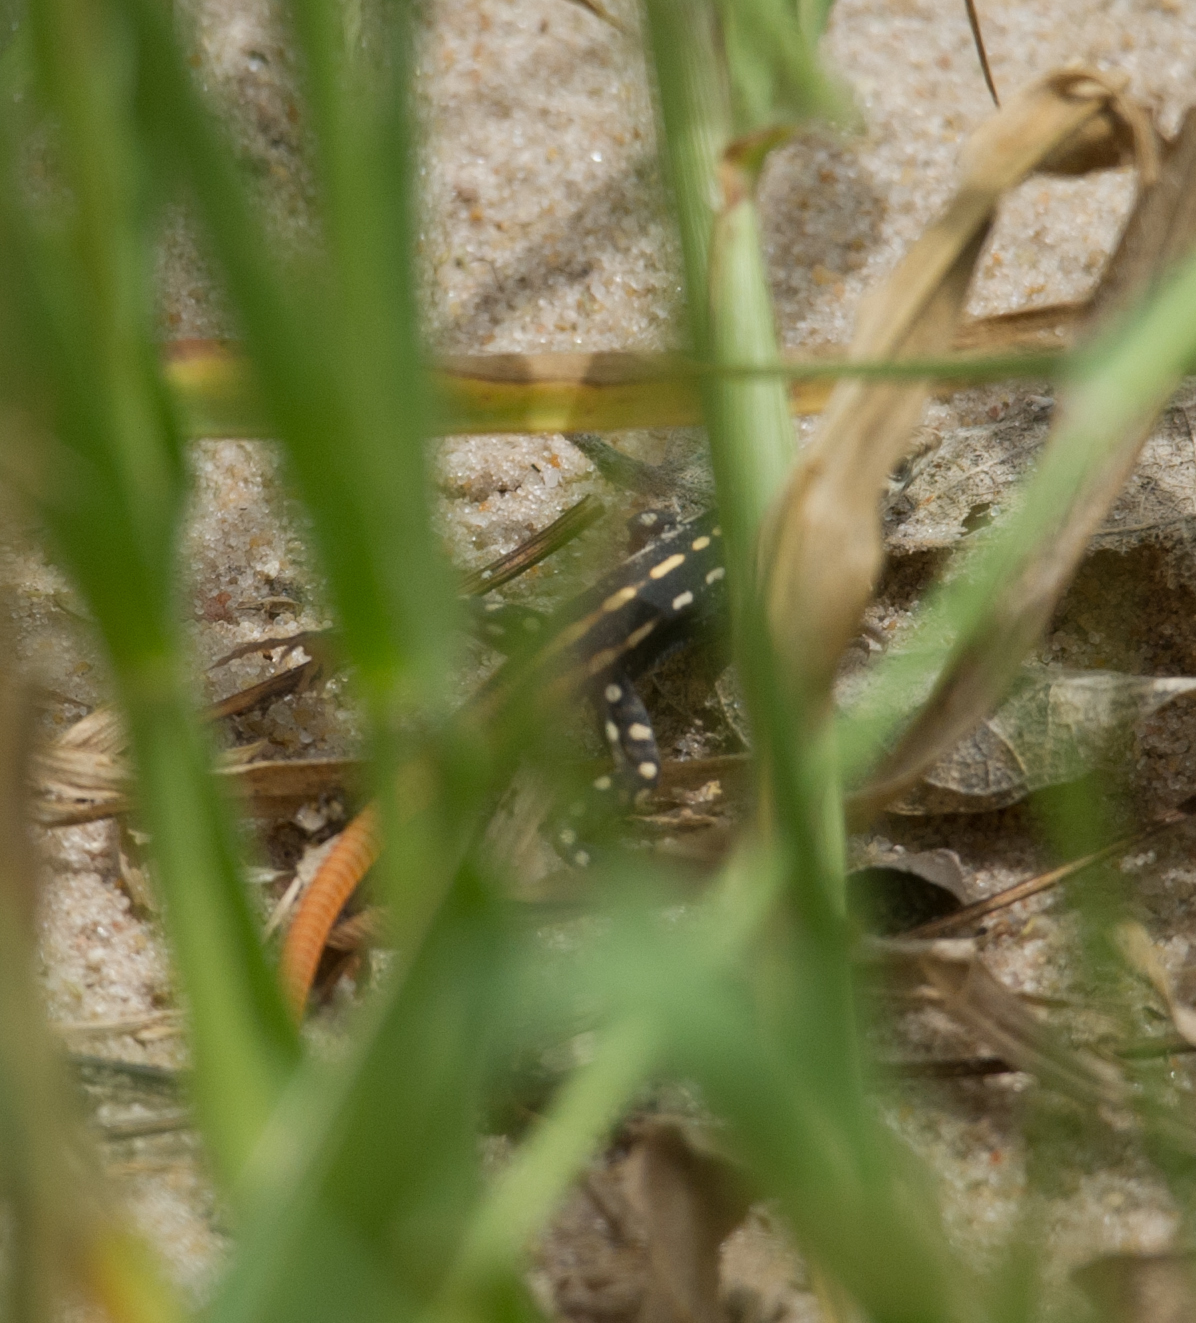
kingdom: Animalia
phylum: Chordata
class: Squamata
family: Lacertidae
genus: Heliobolus
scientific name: Heliobolus lugubris
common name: Bushveld lizard
